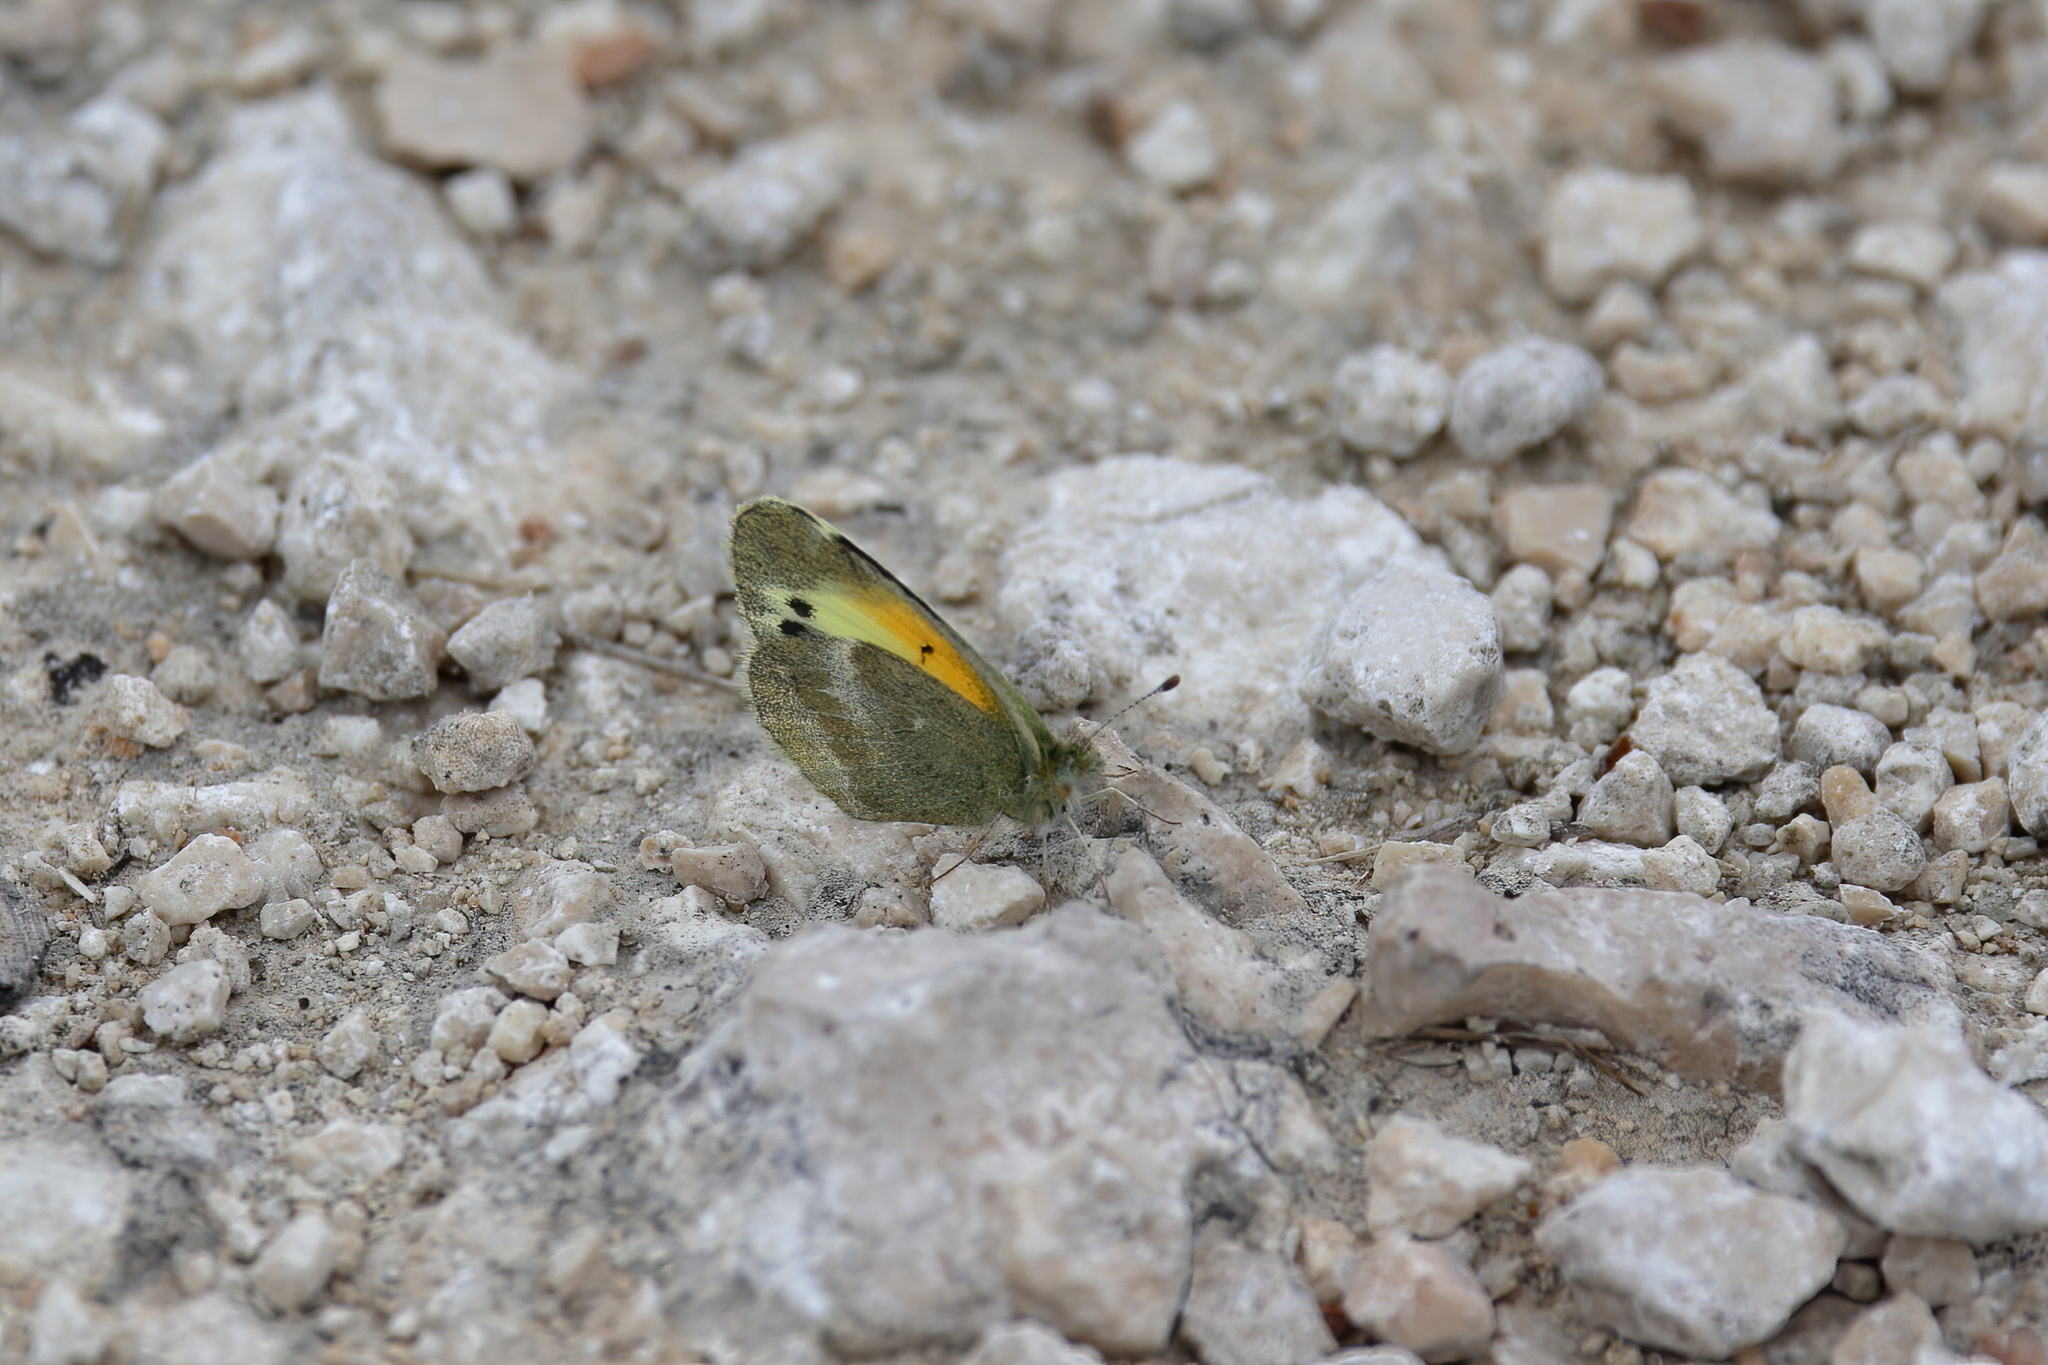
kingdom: Animalia
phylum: Arthropoda
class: Insecta
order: Lepidoptera
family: Pieridae
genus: Nathalis
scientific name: Nathalis iole
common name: Dainty sulphur
